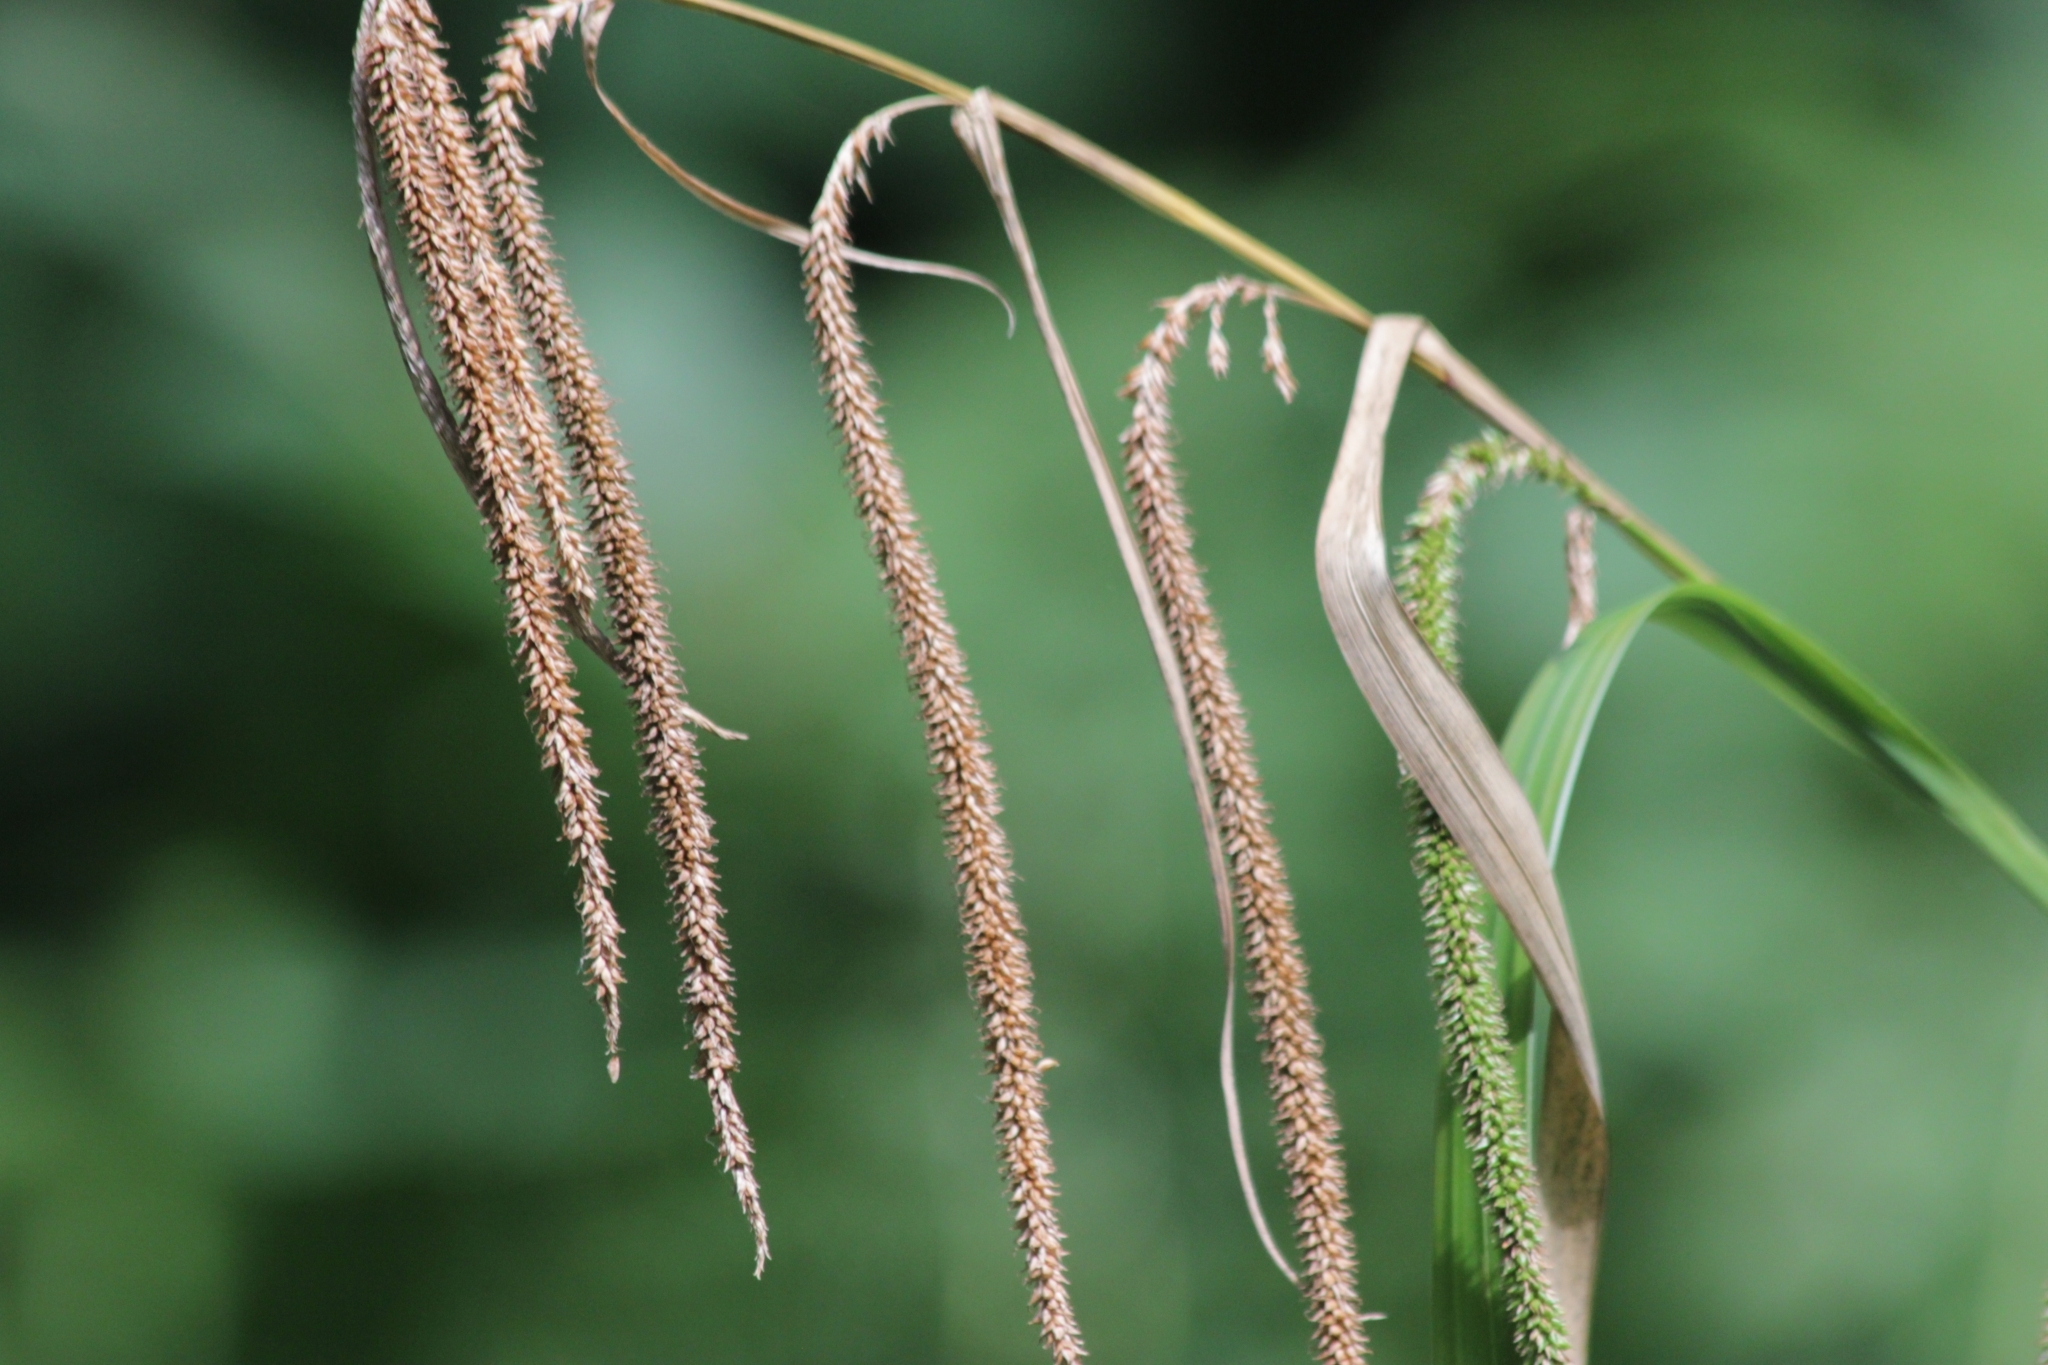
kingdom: Plantae
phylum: Tracheophyta
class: Liliopsida
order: Poales
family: Cyperaceae
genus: Carex
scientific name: Carex pendula
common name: Pendulous sedge
